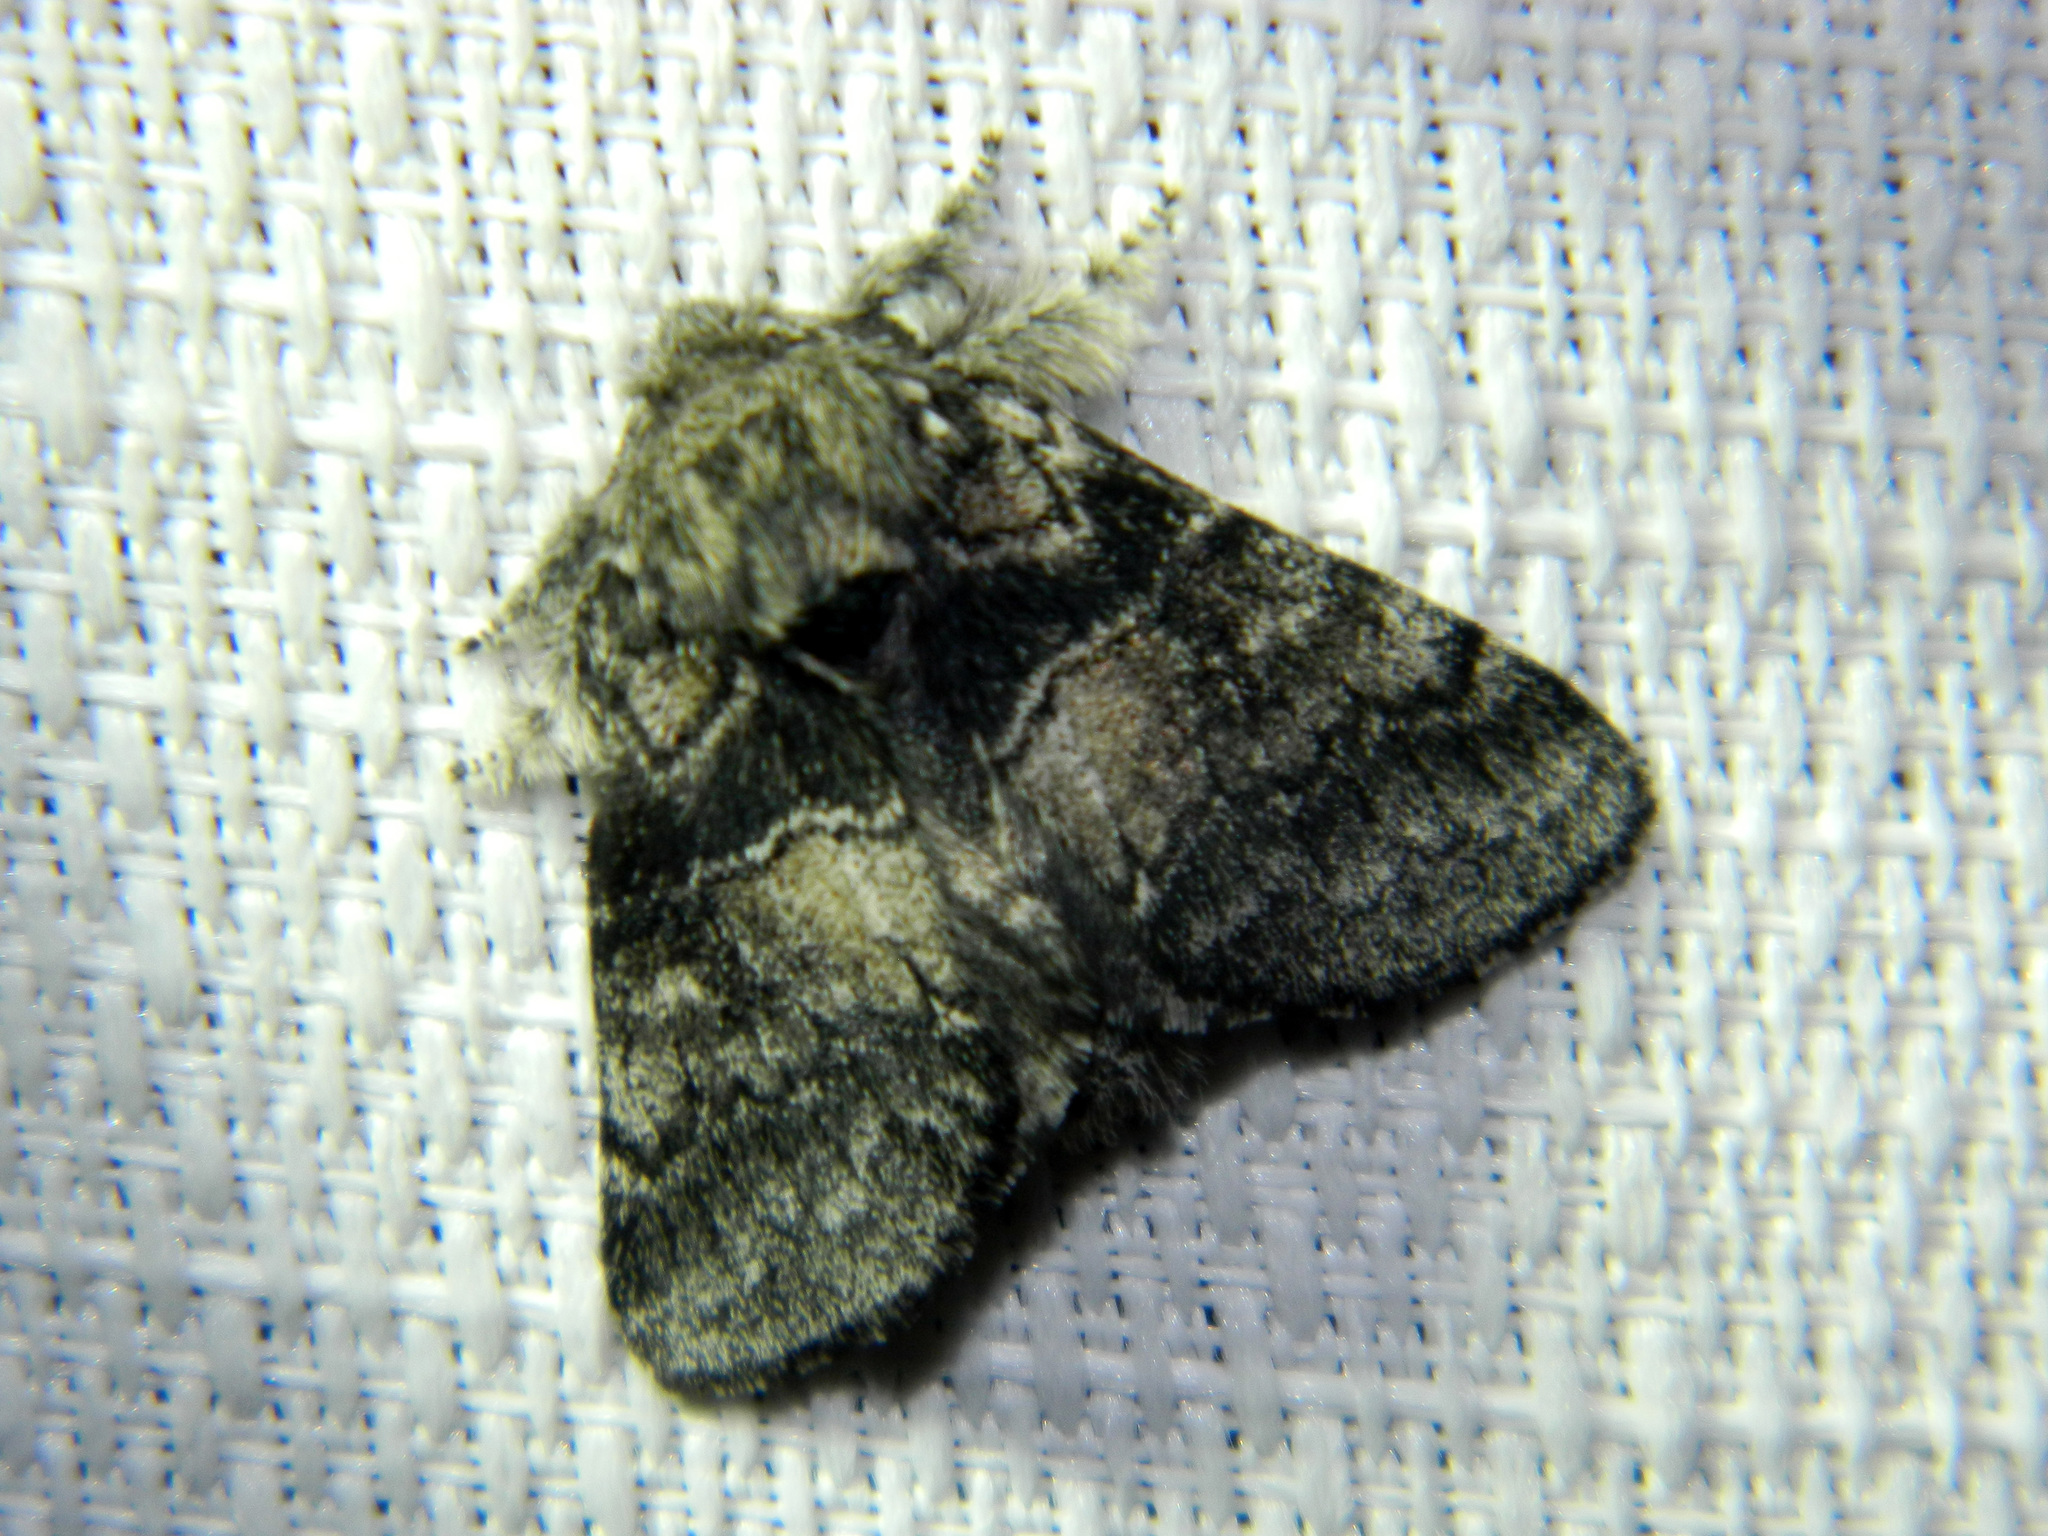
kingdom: Animalia
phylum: Arthropoda
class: Insecta
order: Lepidoptera
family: Notodontidae
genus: Gluphisia
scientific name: Gluphisia septentrionis
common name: Common gluphisia
